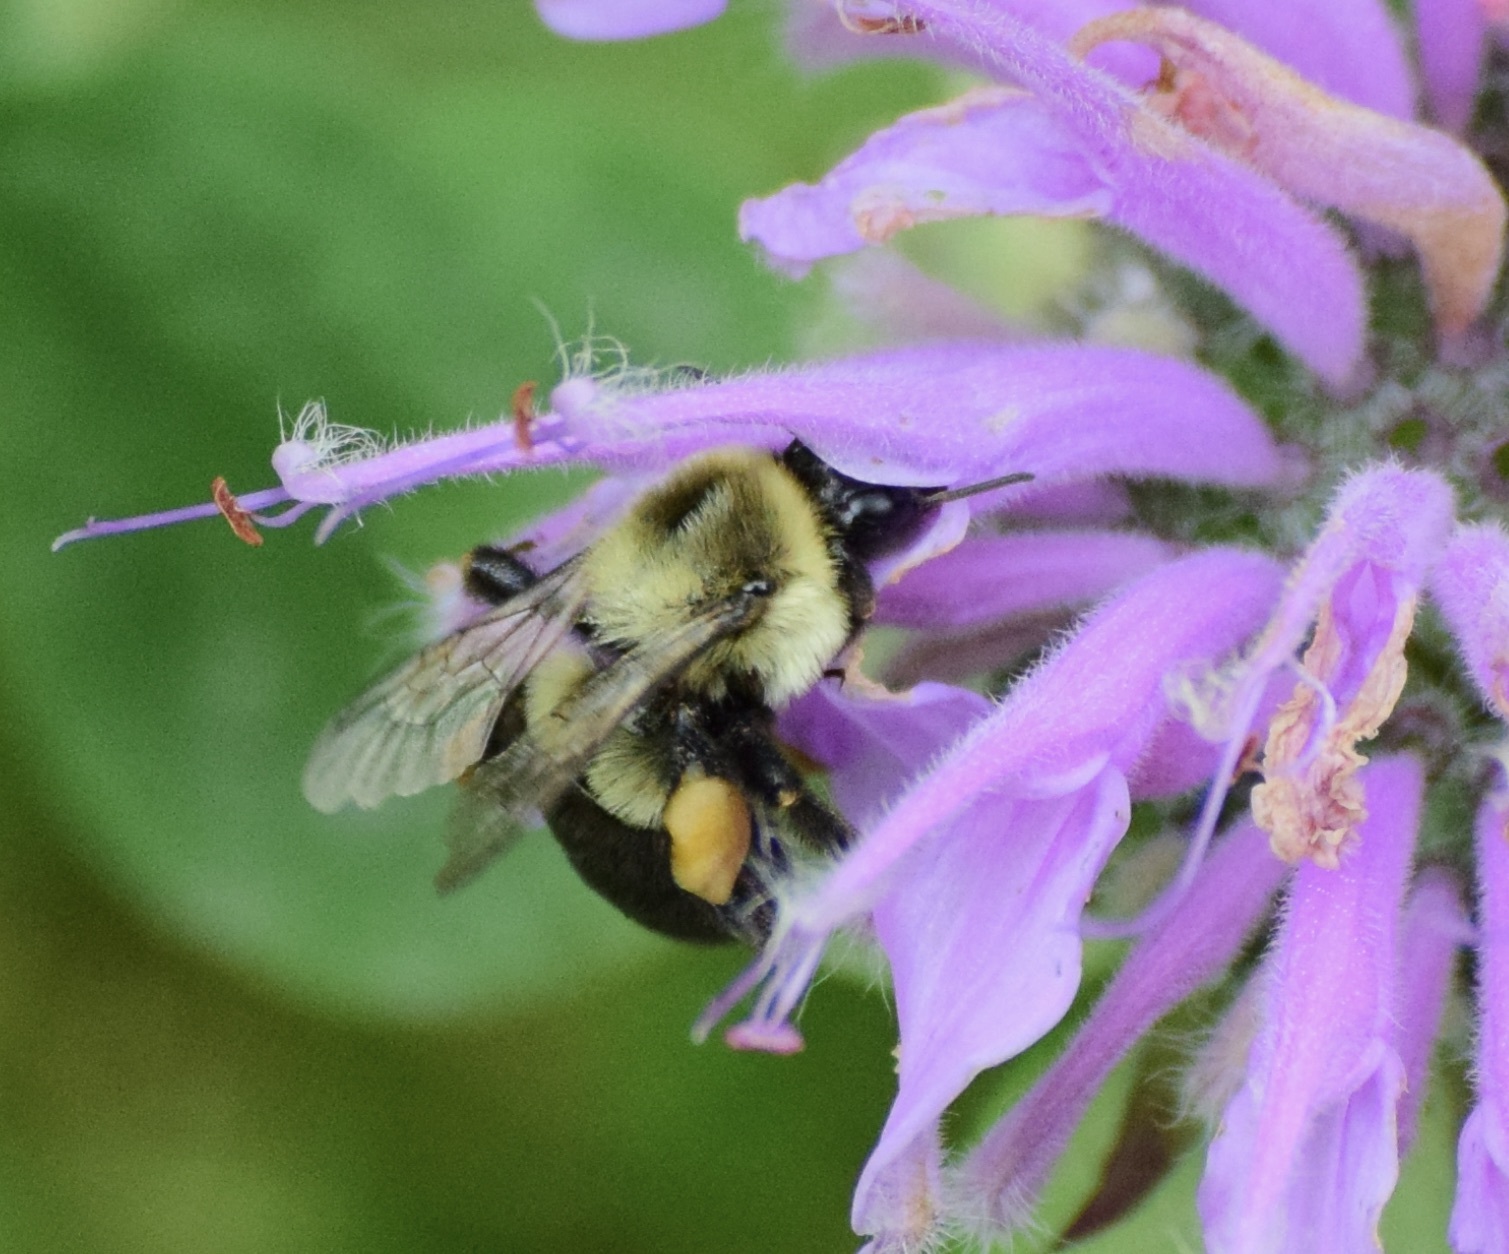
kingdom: Animalia
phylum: Arthropoda
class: Insecta
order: Hymenoptera
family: Apidae
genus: Bombus
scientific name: Bombus impatiens
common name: Common eastern bumble bee
